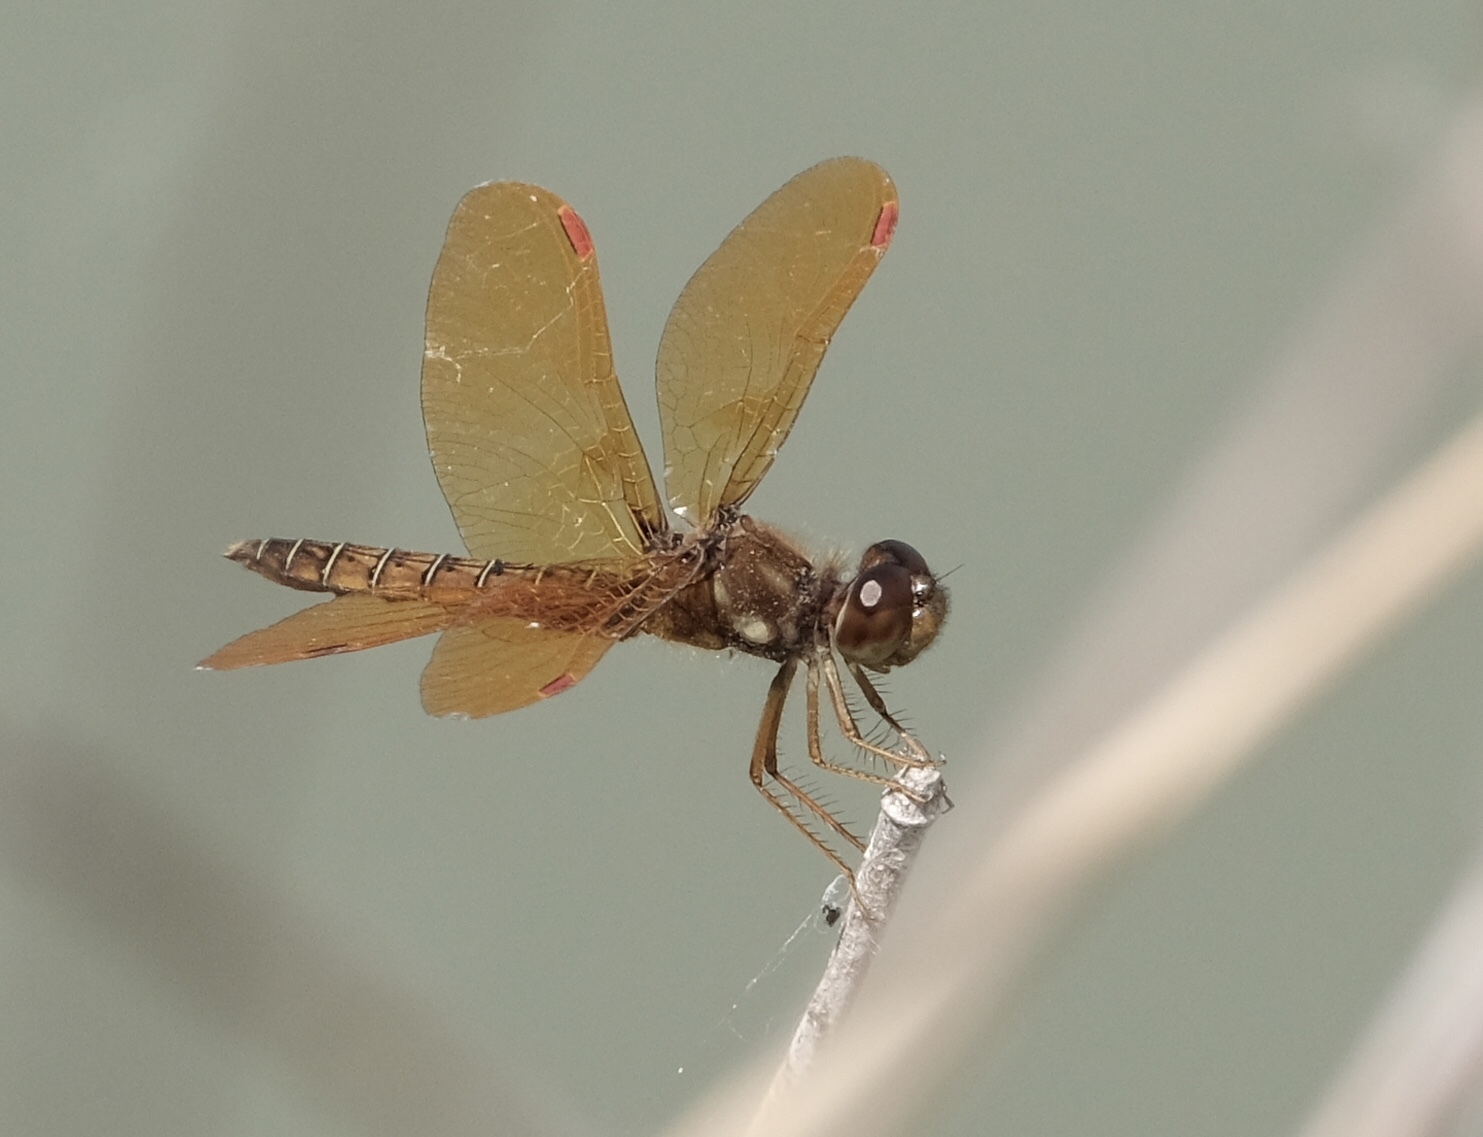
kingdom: Animalia
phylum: Arthropoda
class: Insecta
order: Odonata
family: Libellulidae
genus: Perithemis
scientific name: Perithemis tenera
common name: Eastern amberwing
